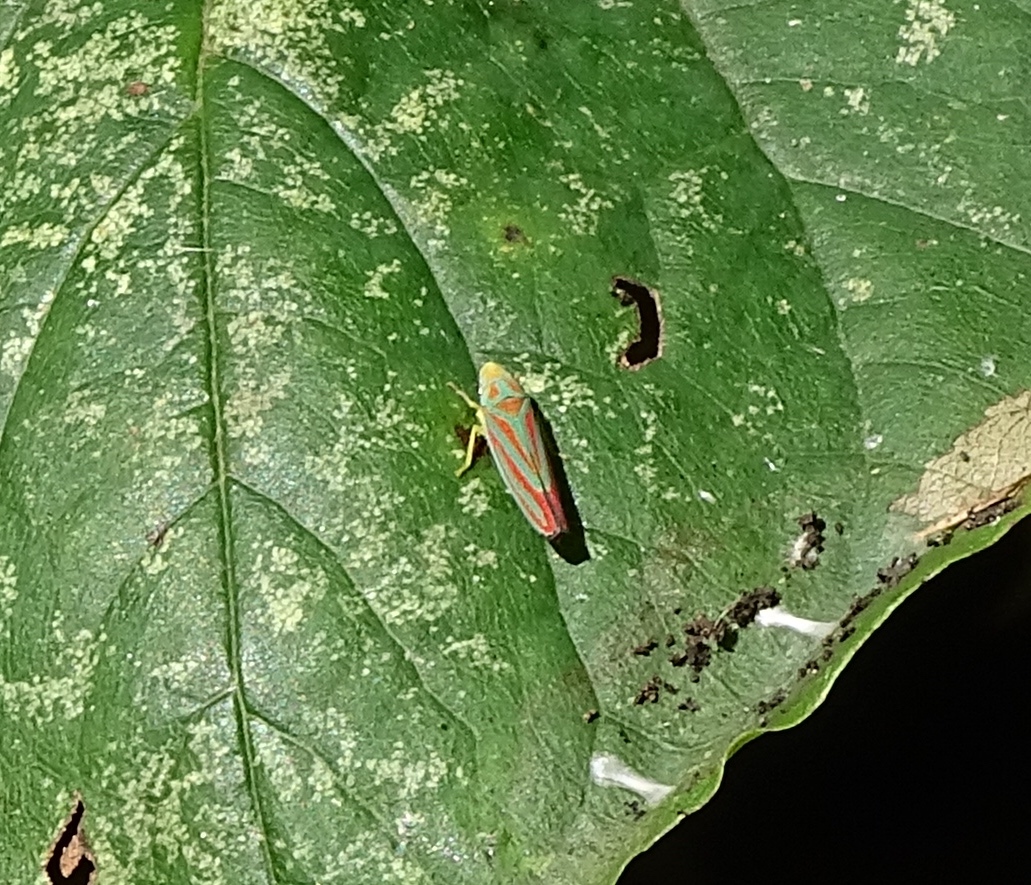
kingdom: Animalia
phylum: Arthropoda
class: Insecta
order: Hemiptera
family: Cicadellidae
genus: Graphocephala
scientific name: Graphocephala coccinea
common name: Candy-striped leafhopper
